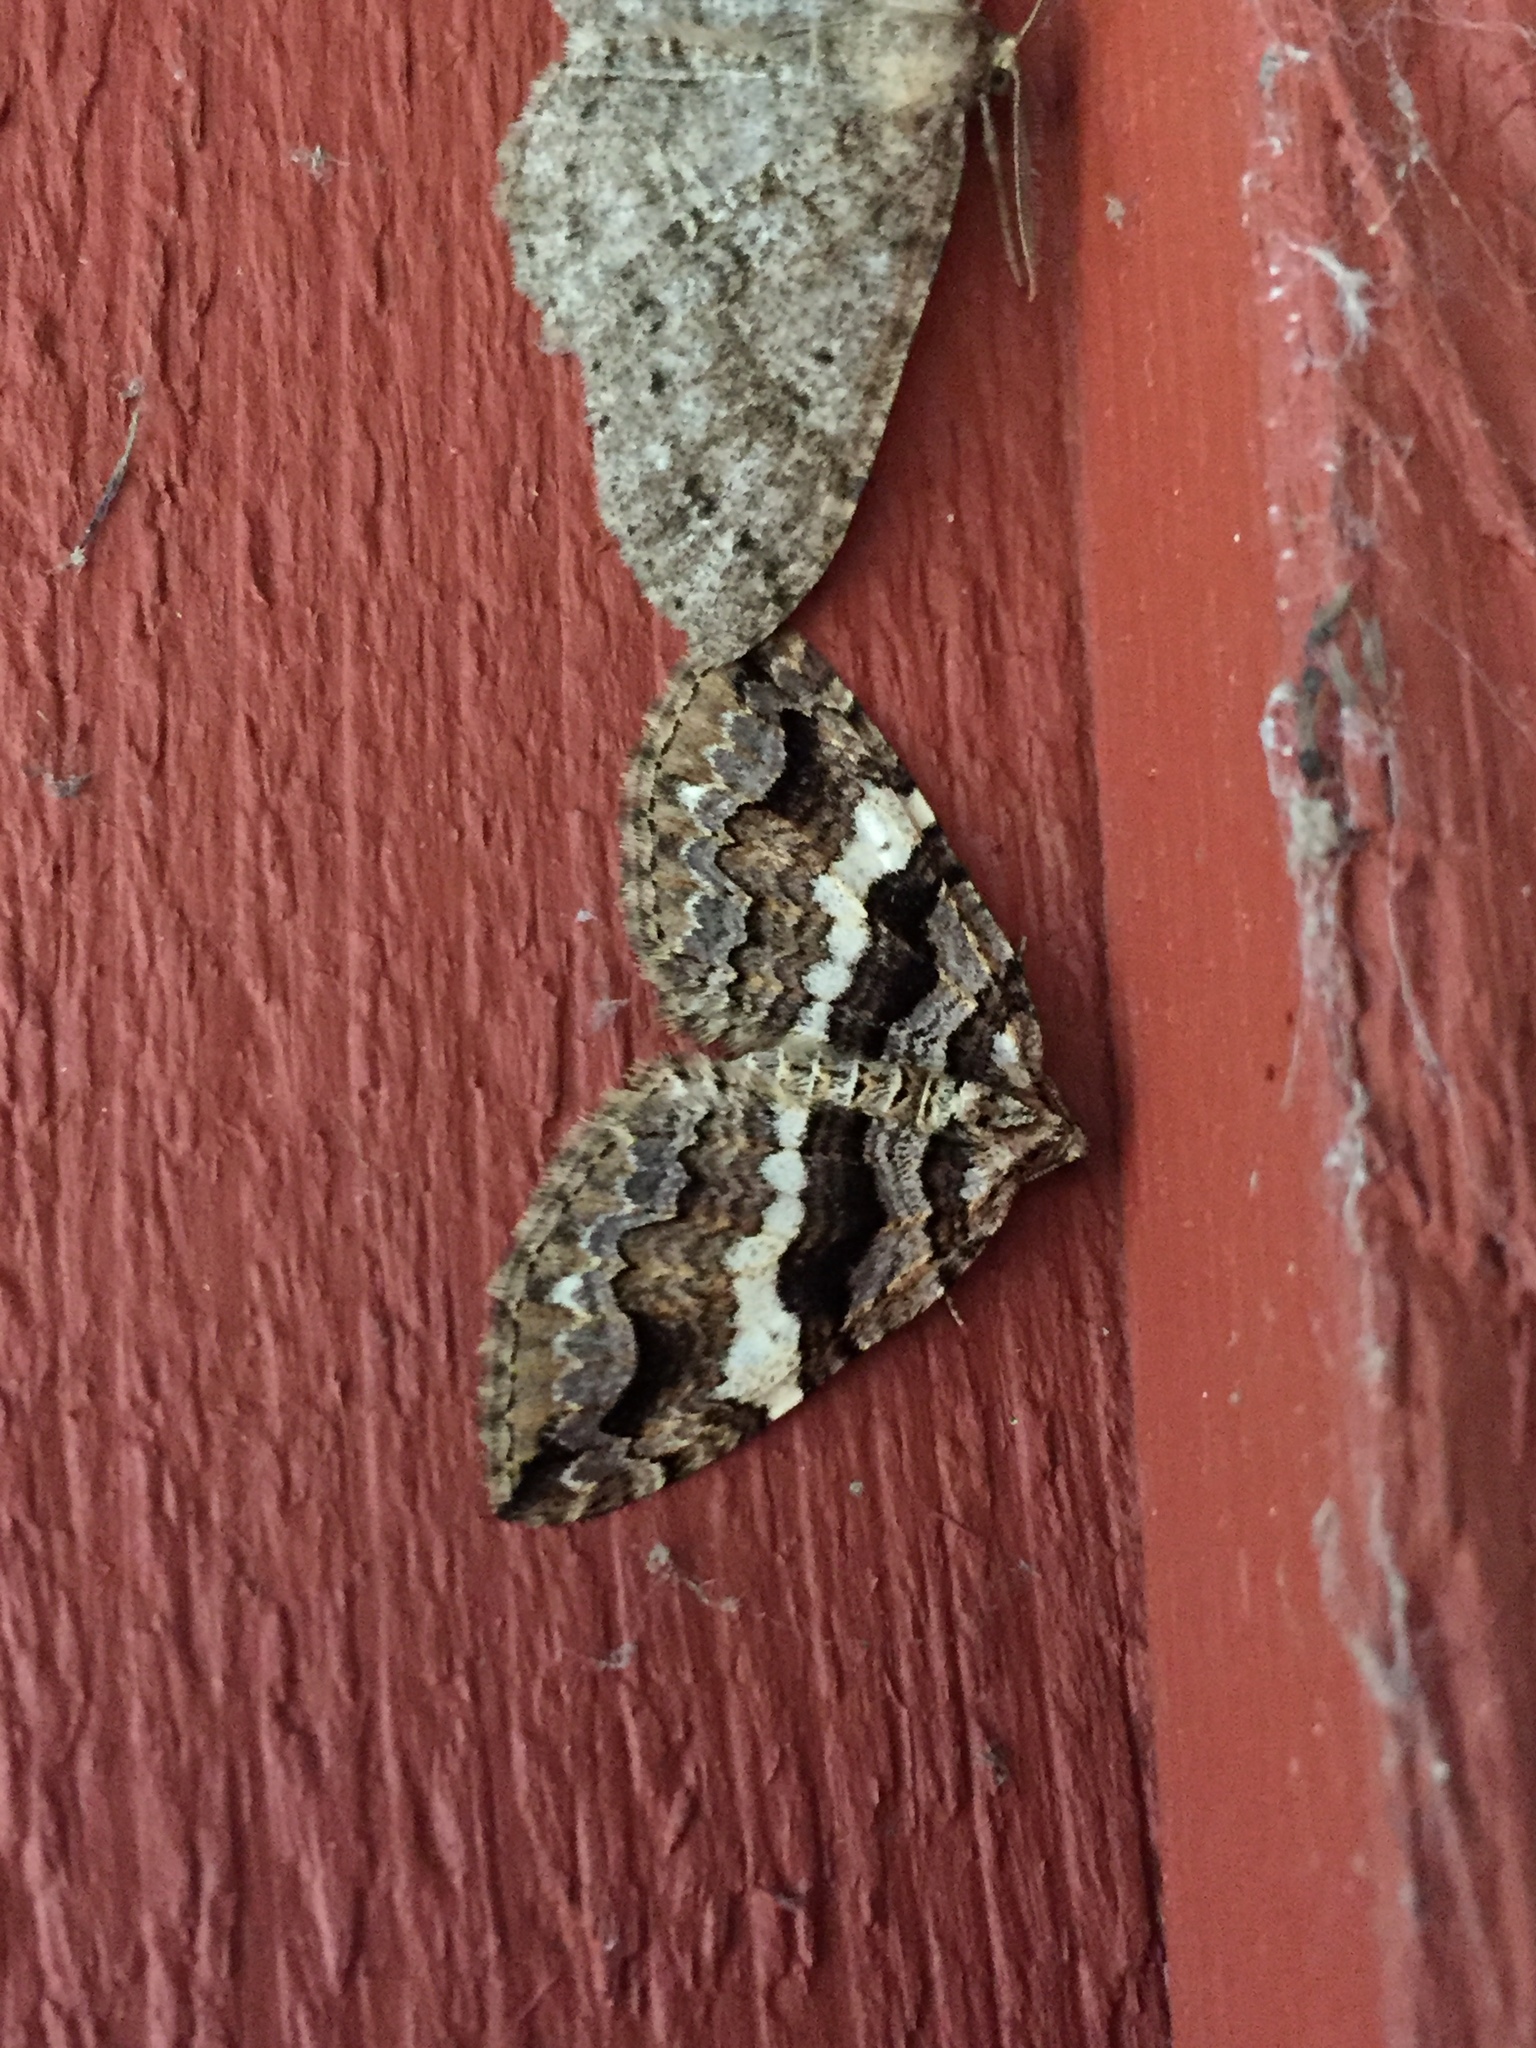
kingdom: Animalia
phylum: Arthropoda
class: Insecta
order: Lepidoptera
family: Geometridae
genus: Anticlea
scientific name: Anticlea vasiliata
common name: Variable carpet
